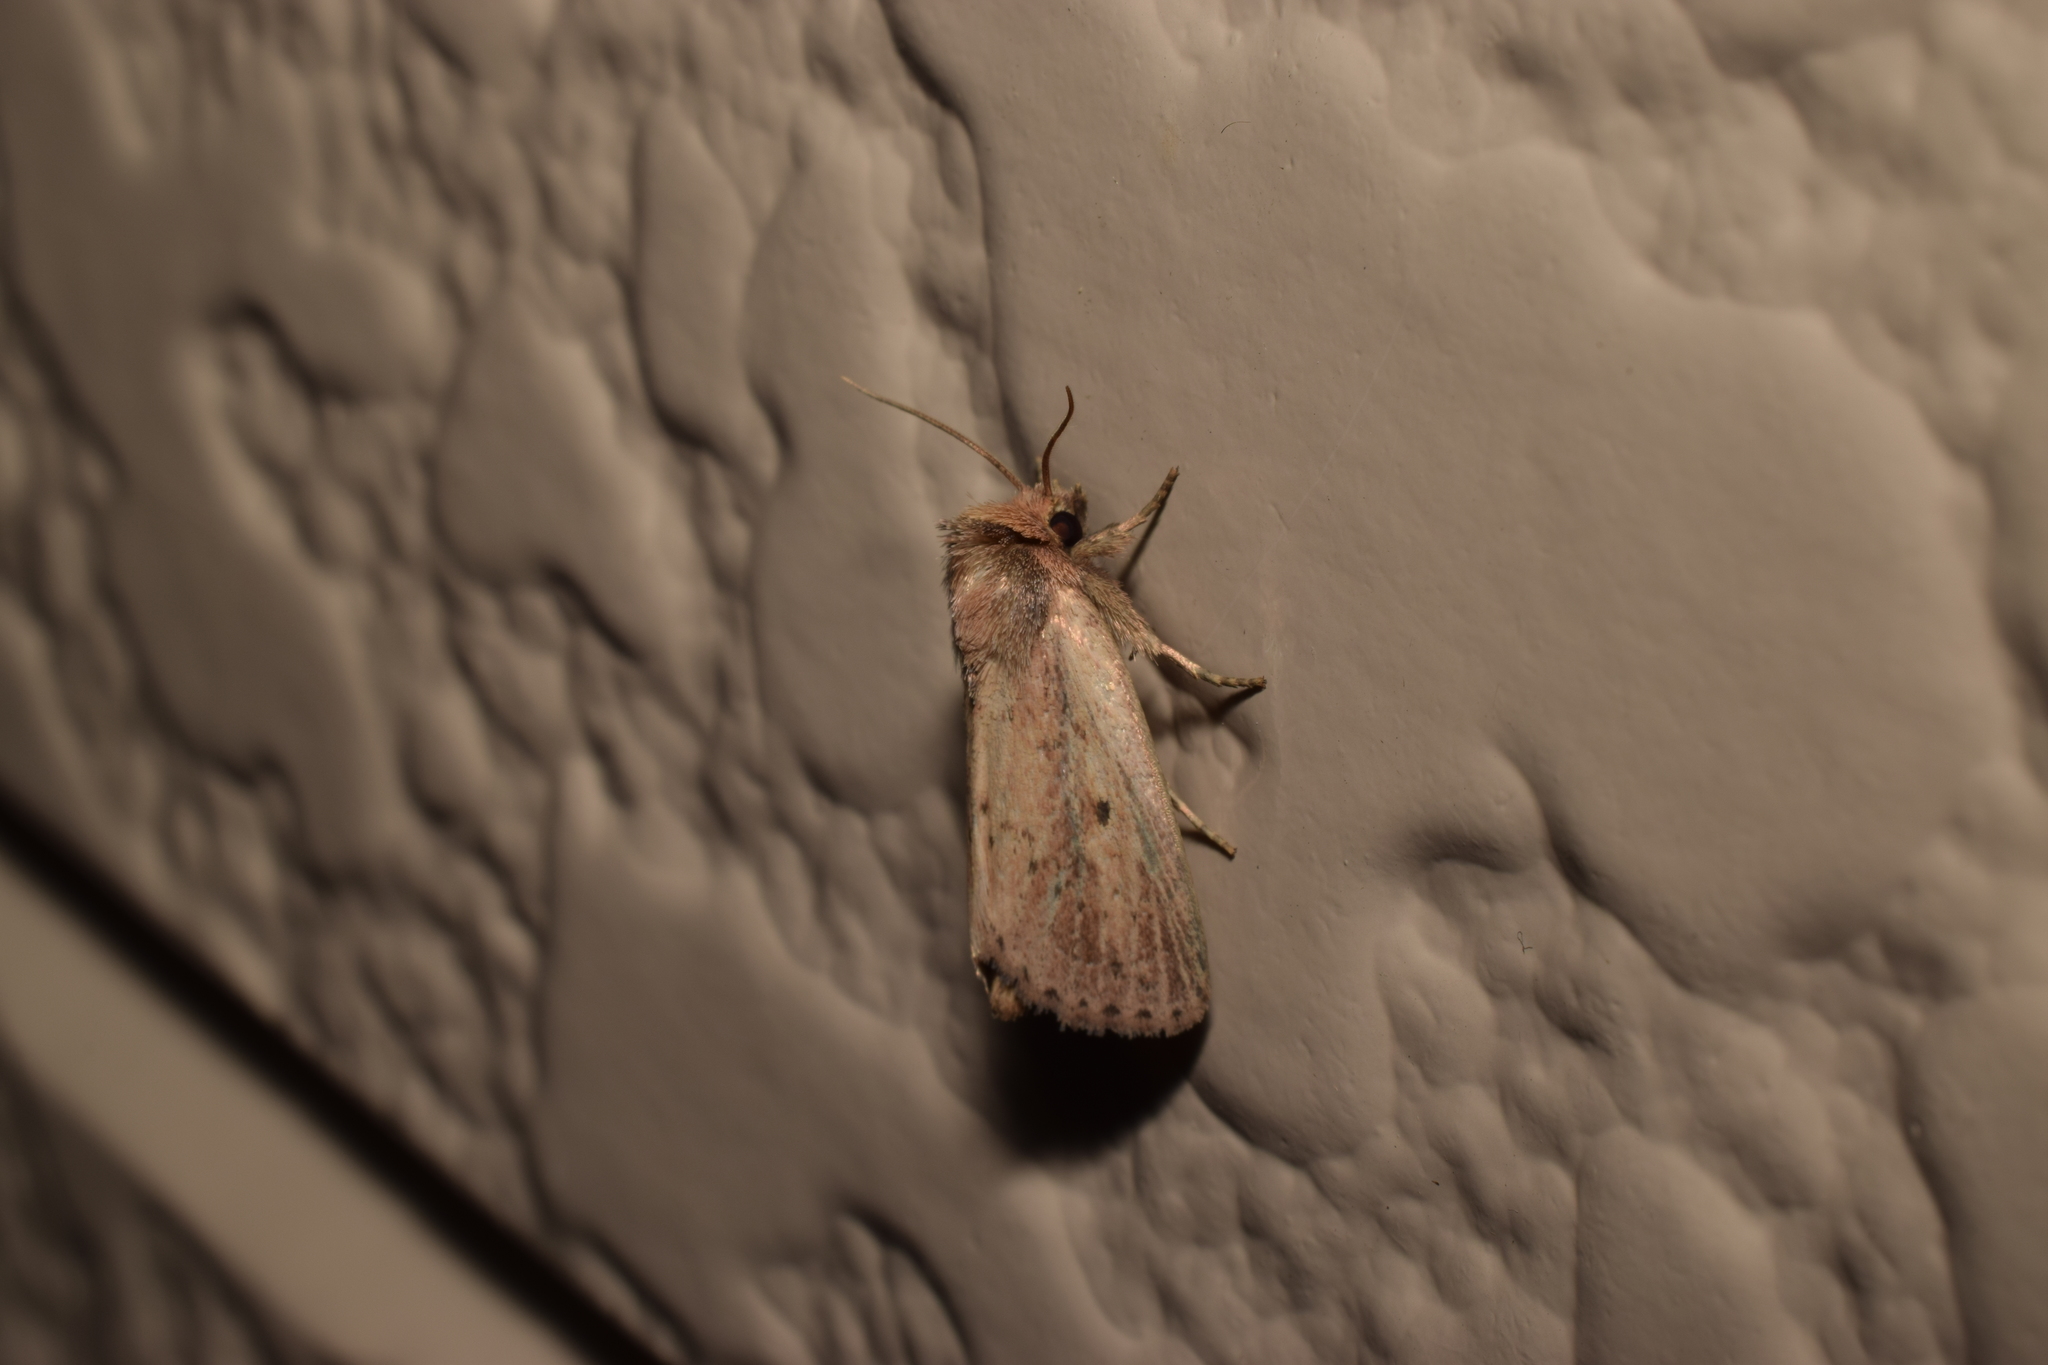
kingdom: Animalia
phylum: Arthropoda
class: Insecta
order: Lepidoptera
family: Noctuidae
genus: Sesamia
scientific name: Sesamia turpis
